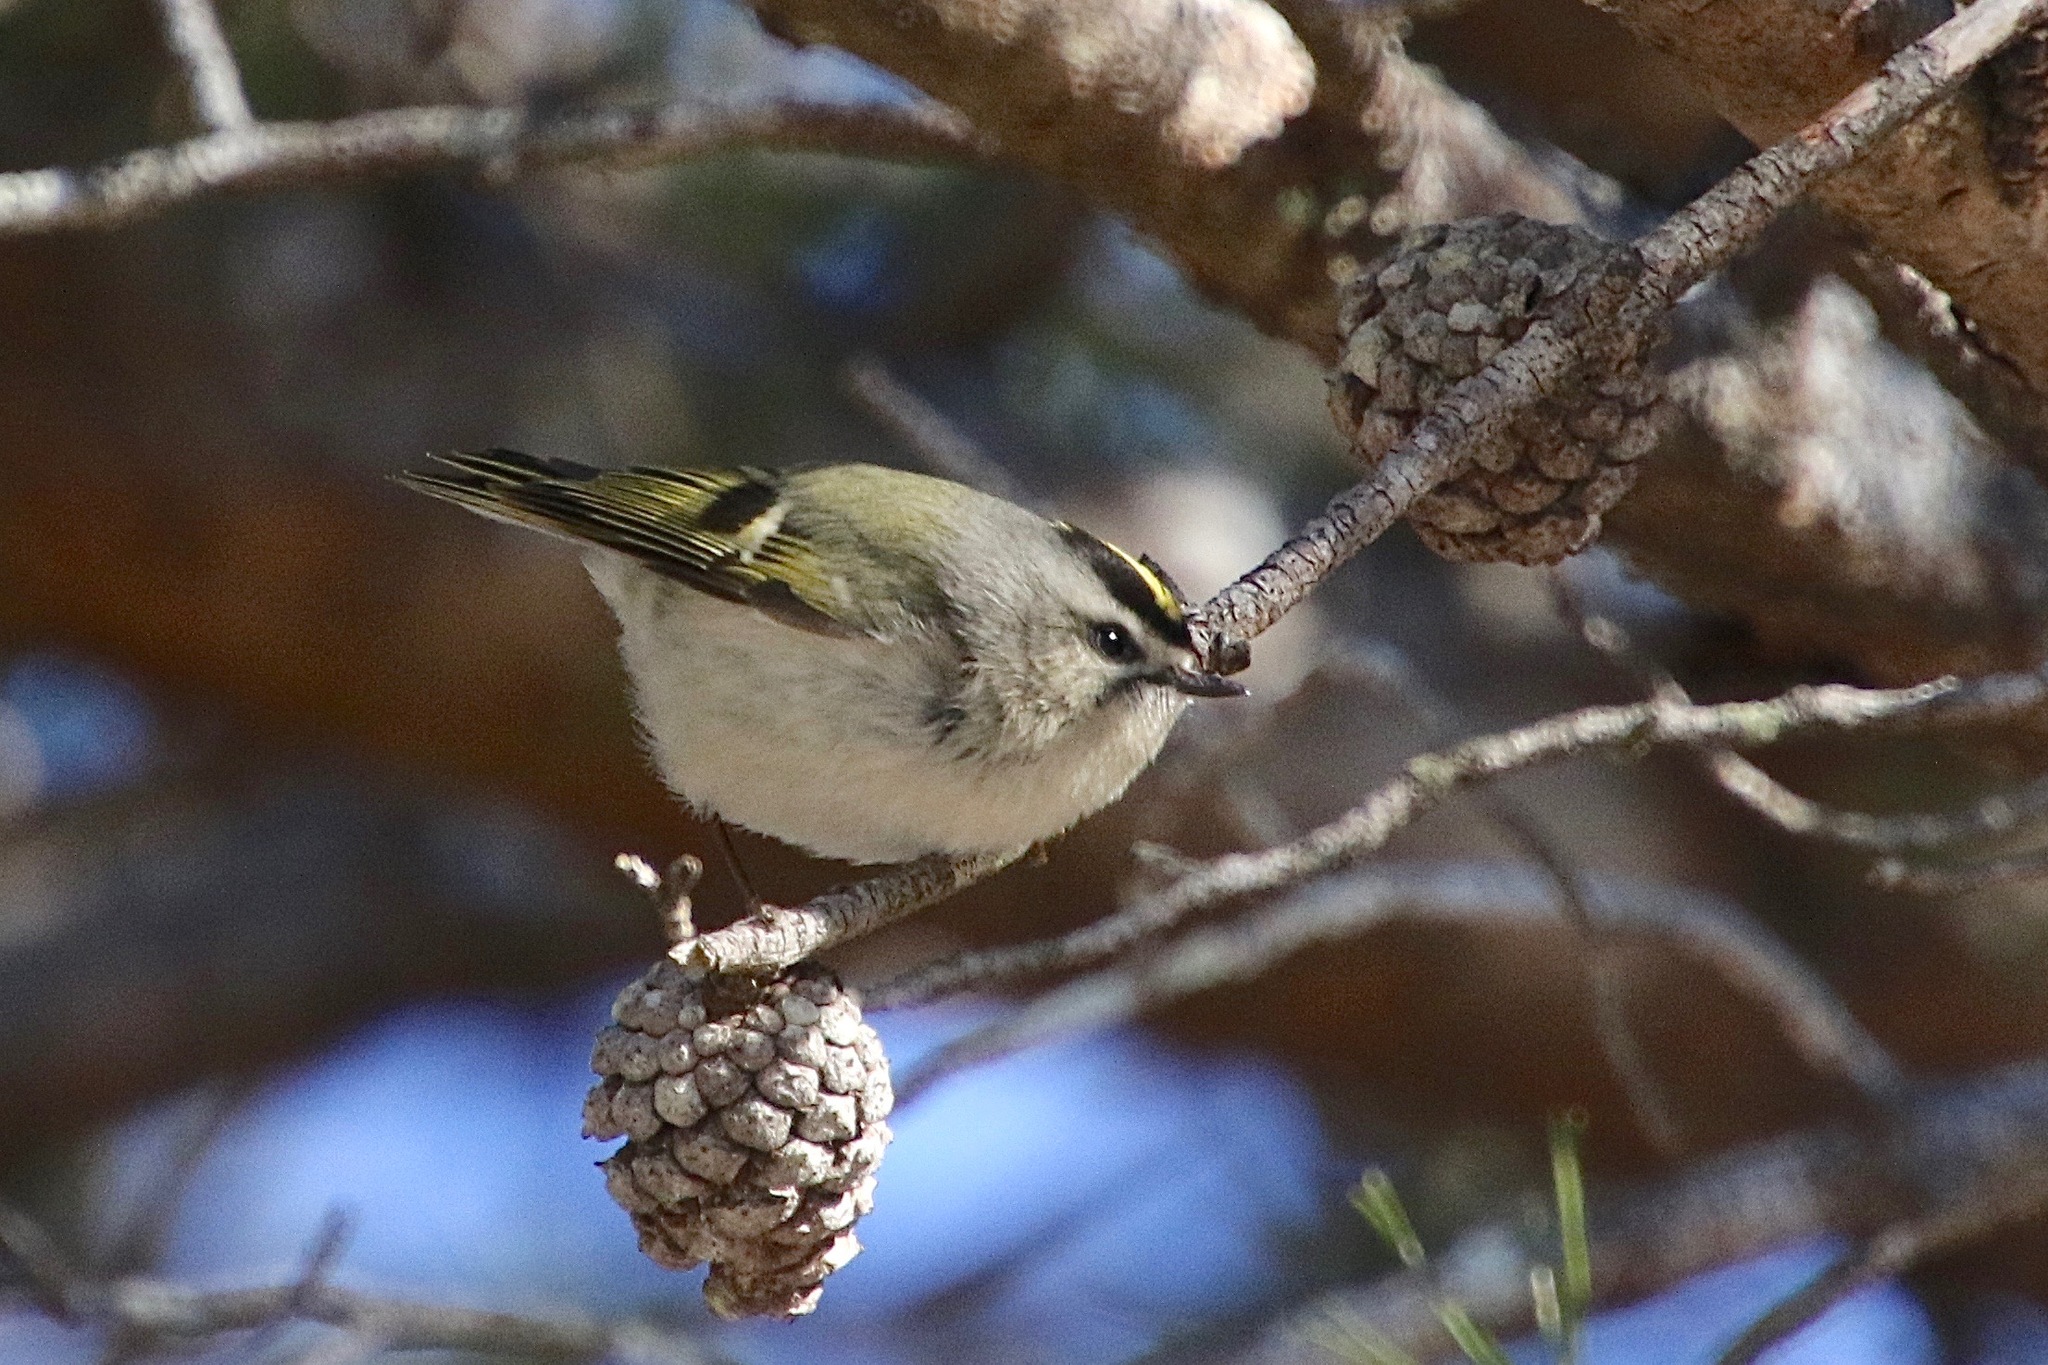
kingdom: Animalia
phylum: Chordata
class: Aves
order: Passeriformes
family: Regulidae
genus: Regulus
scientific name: Regulus satrapa
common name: Golden-crowned kinglet
